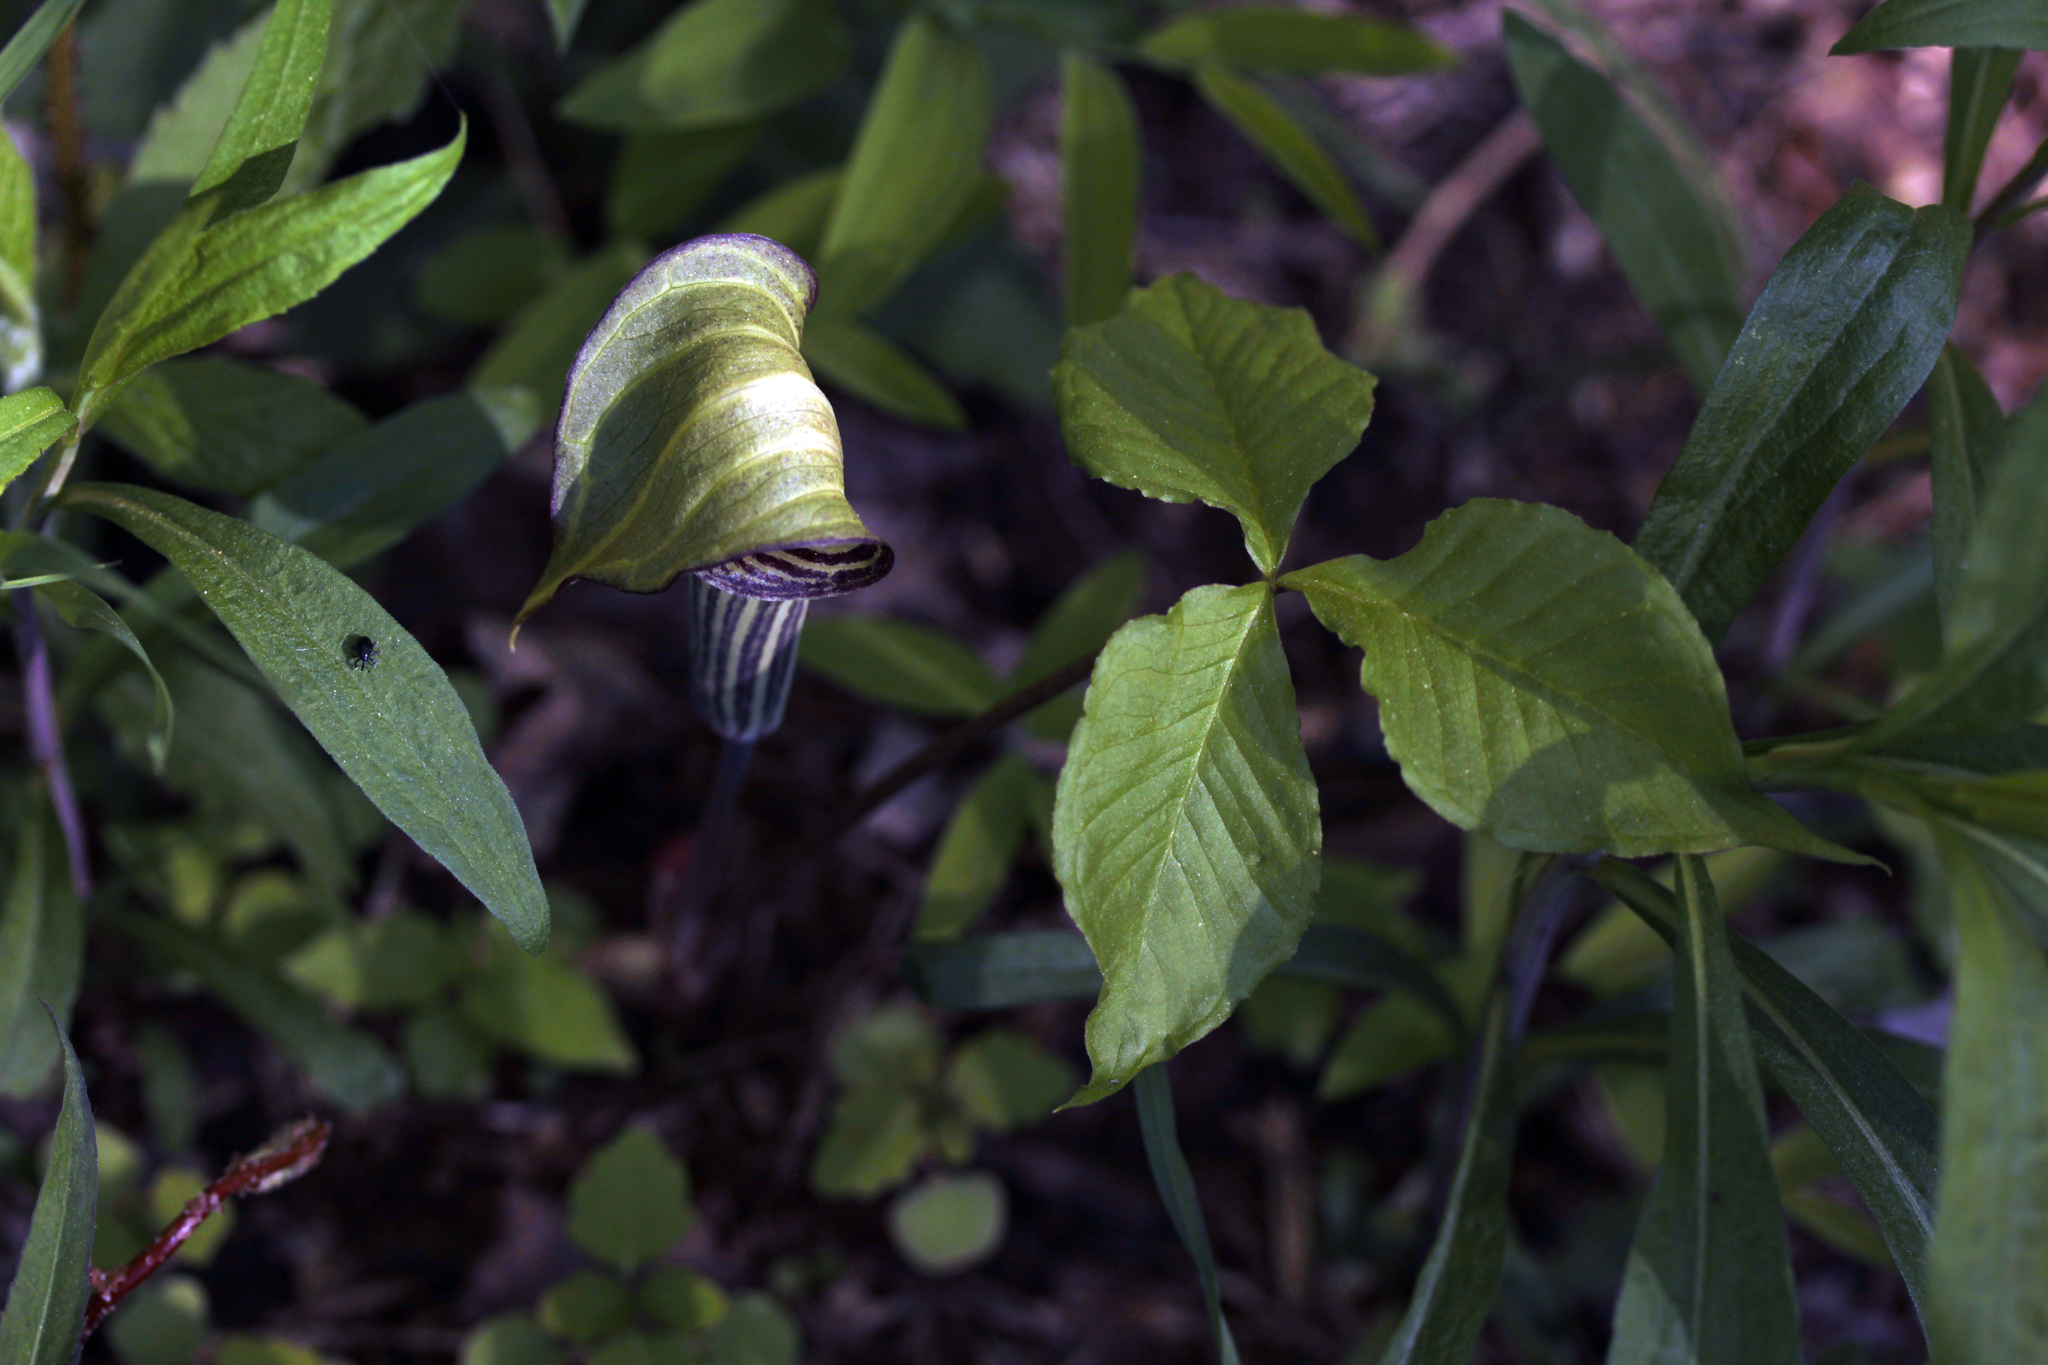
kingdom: Plantae
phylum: Tracheophyta
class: Liliopsida
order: Alismatales
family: Araceae
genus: Arisaema
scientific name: Arisaema triphyllum
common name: Jack-in-the-pulpit
